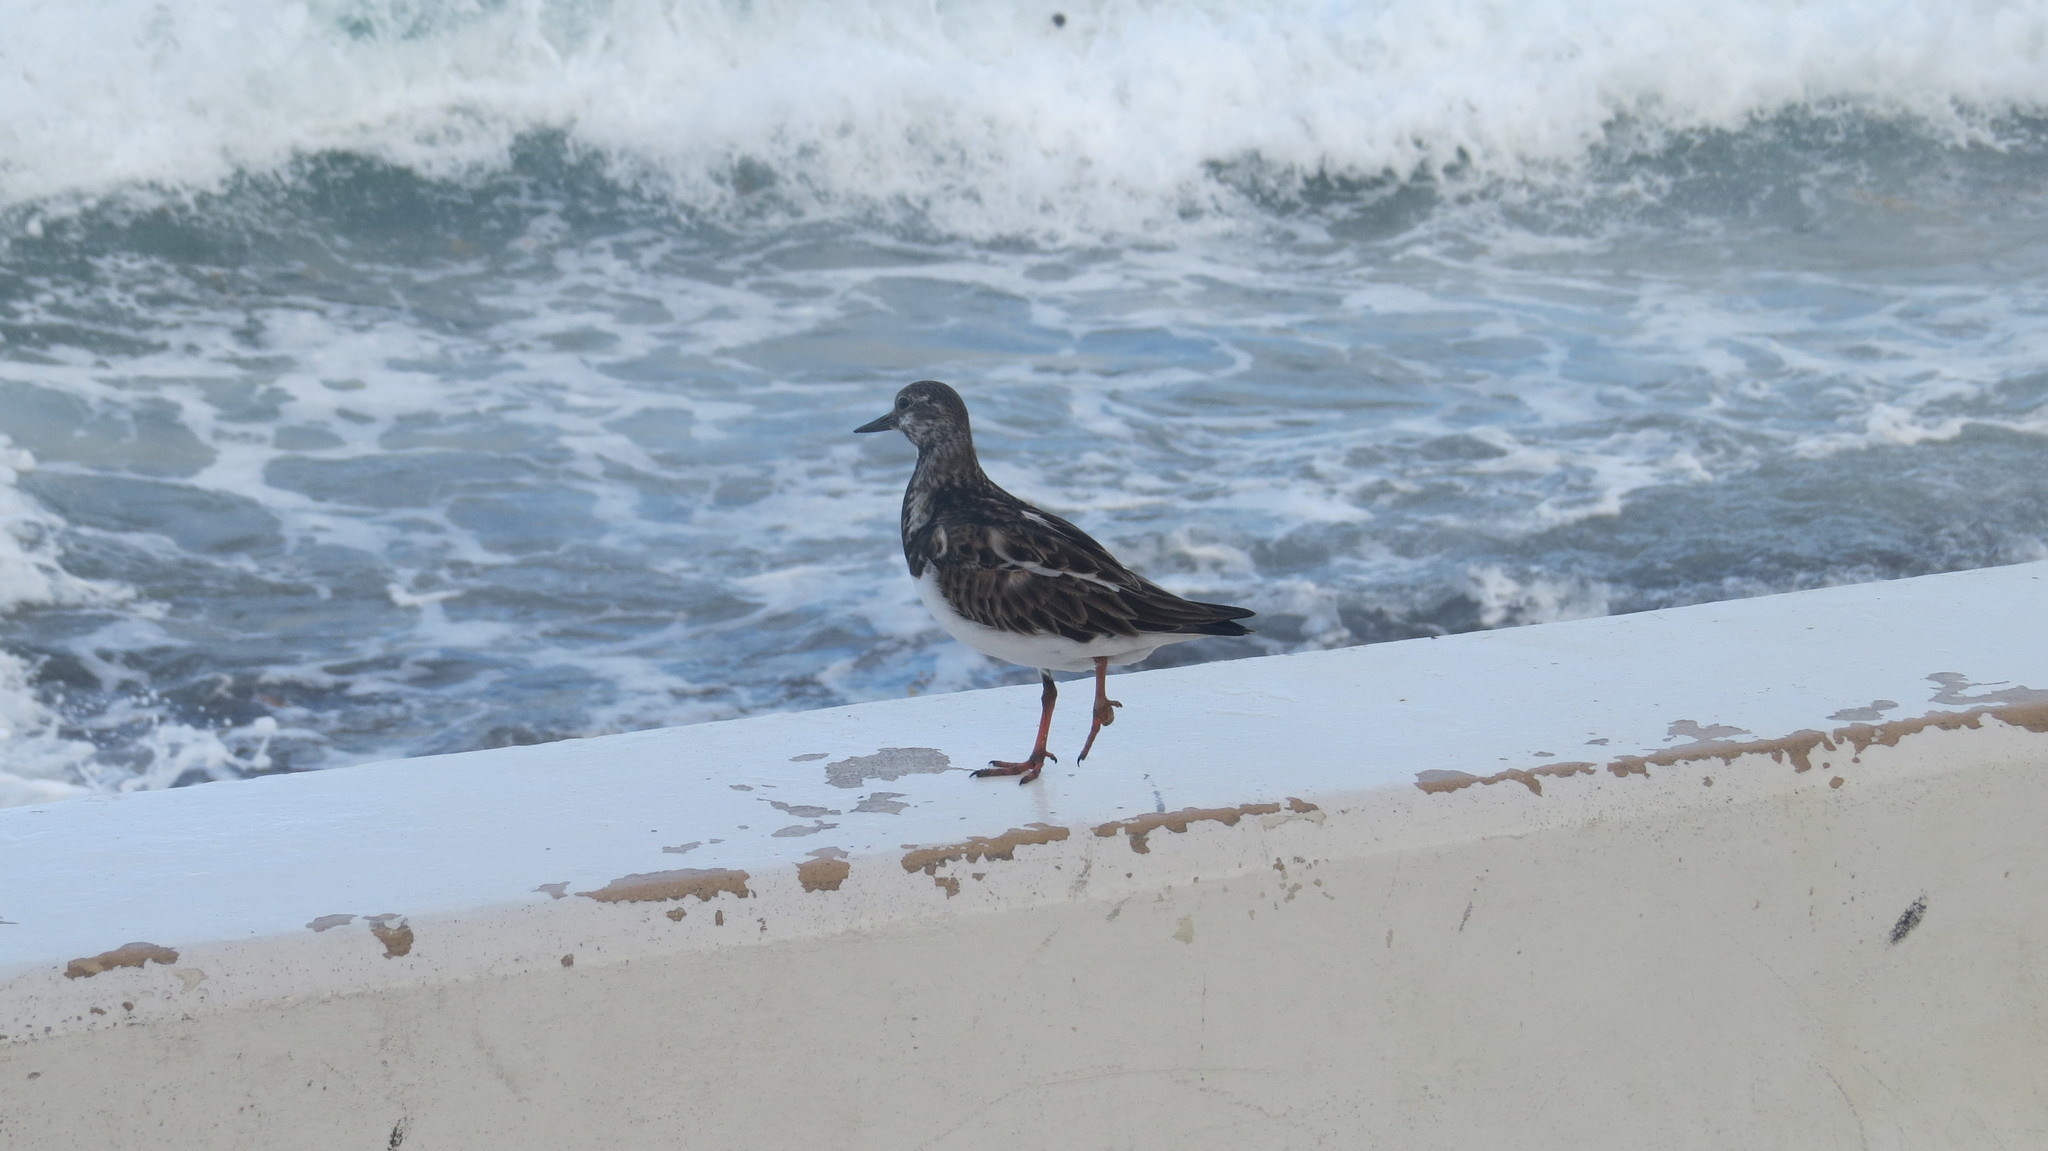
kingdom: Animalia
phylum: Chordata
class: Aves
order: Charadriiformes
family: Scolopacidae
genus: Arenaria
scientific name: Arenaria interpres
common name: Ruddy turnstone
